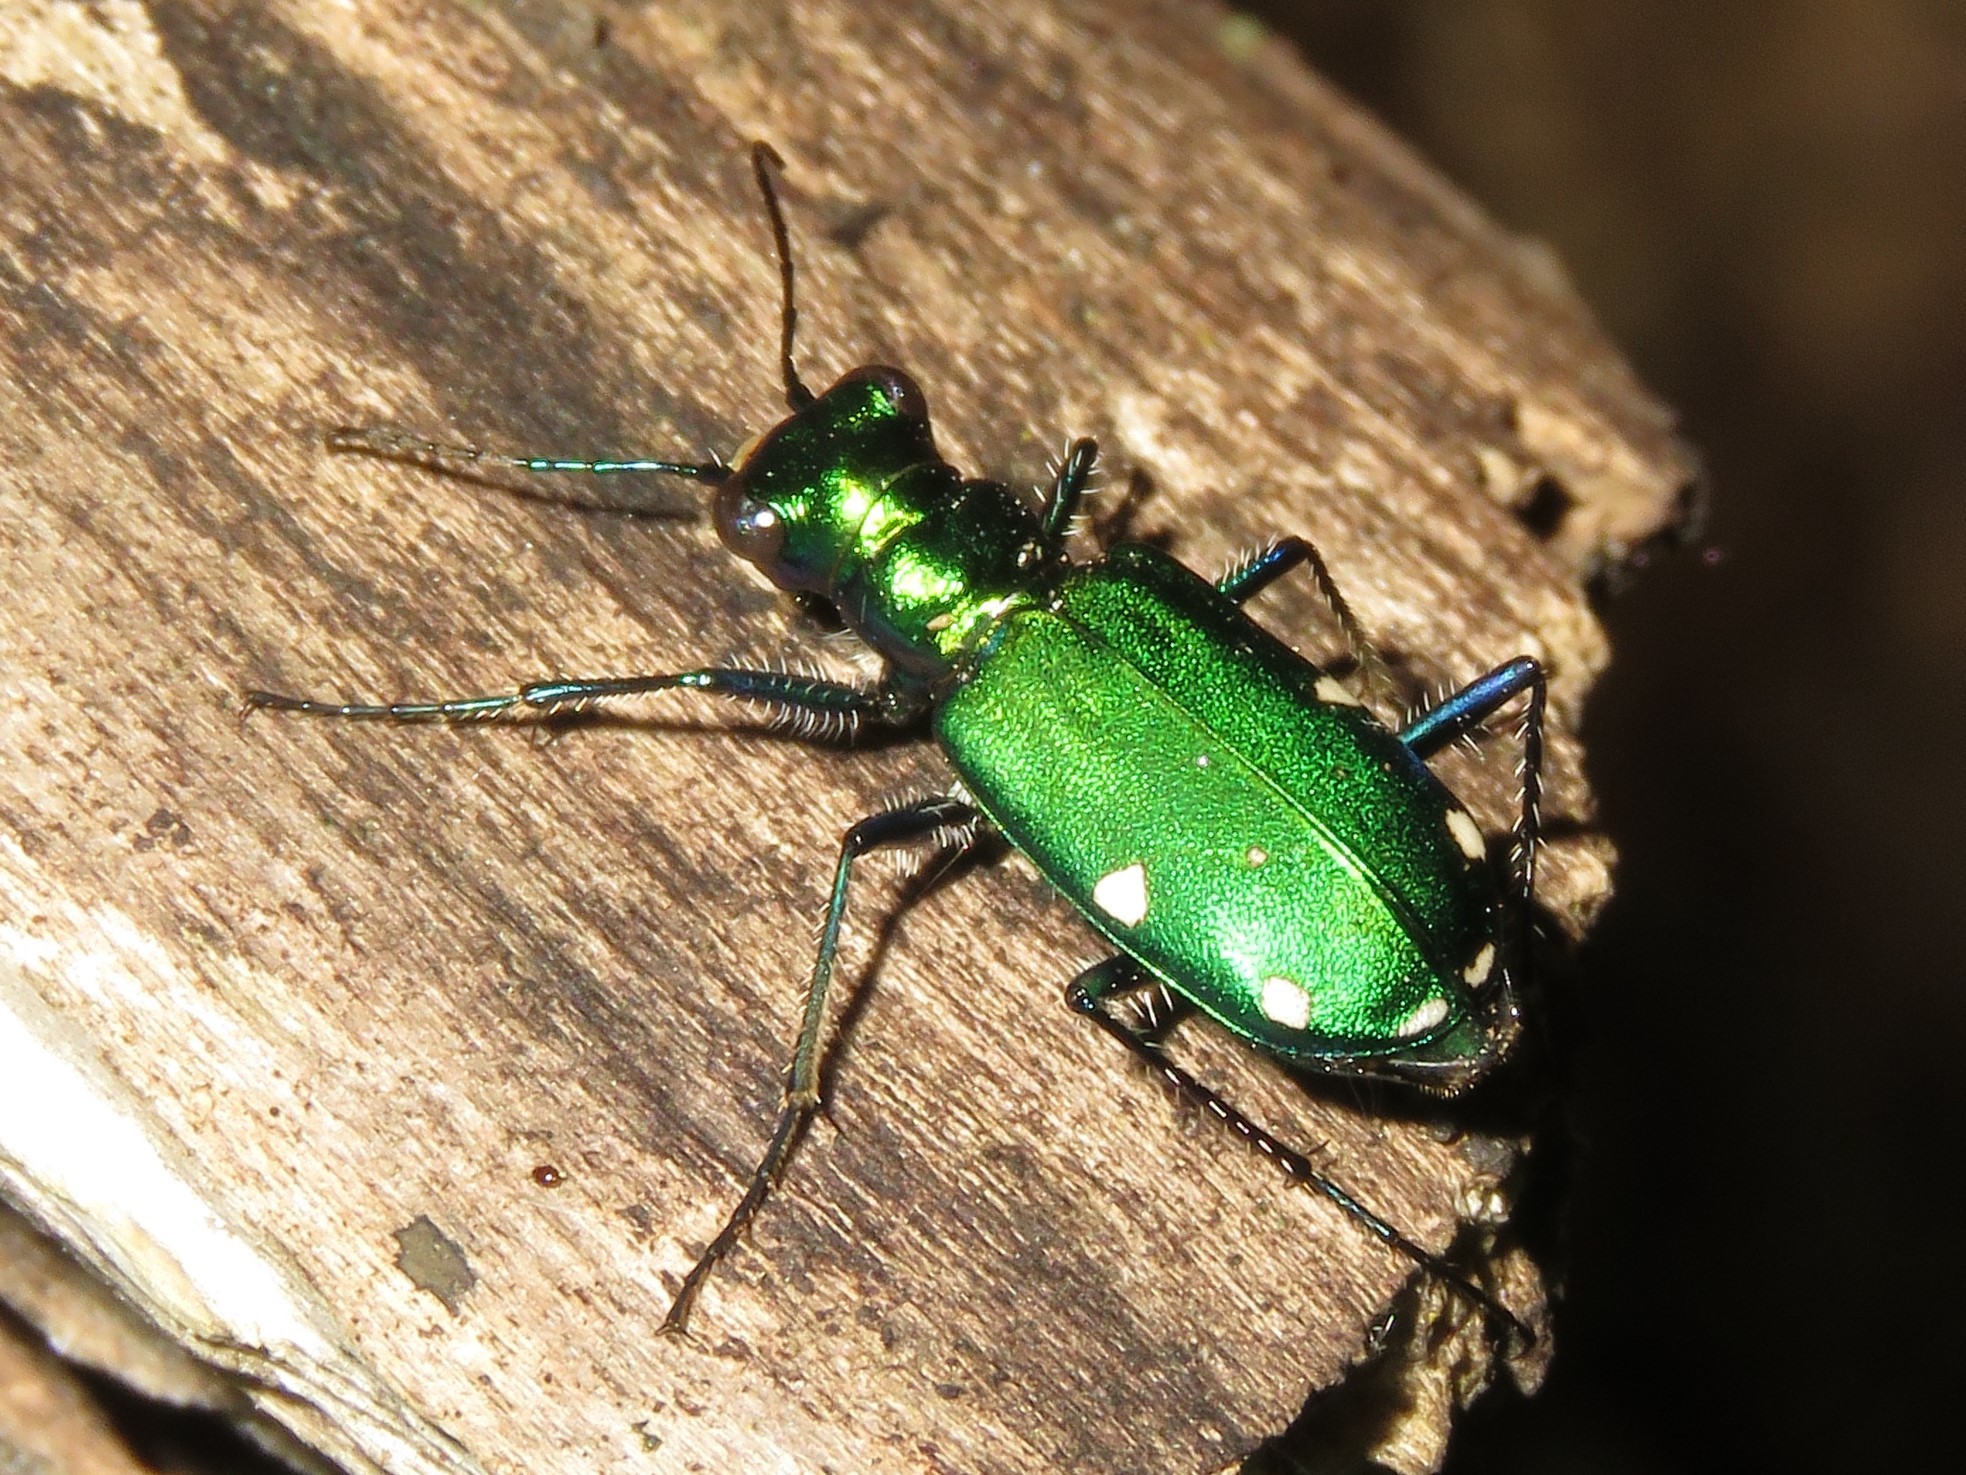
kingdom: Animalia
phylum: Arthropoda
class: Insecta
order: Coleoptera
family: Carabidae
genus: Cicindela
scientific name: Cicindela sexguttata
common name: Six-spotted tiger beetle
